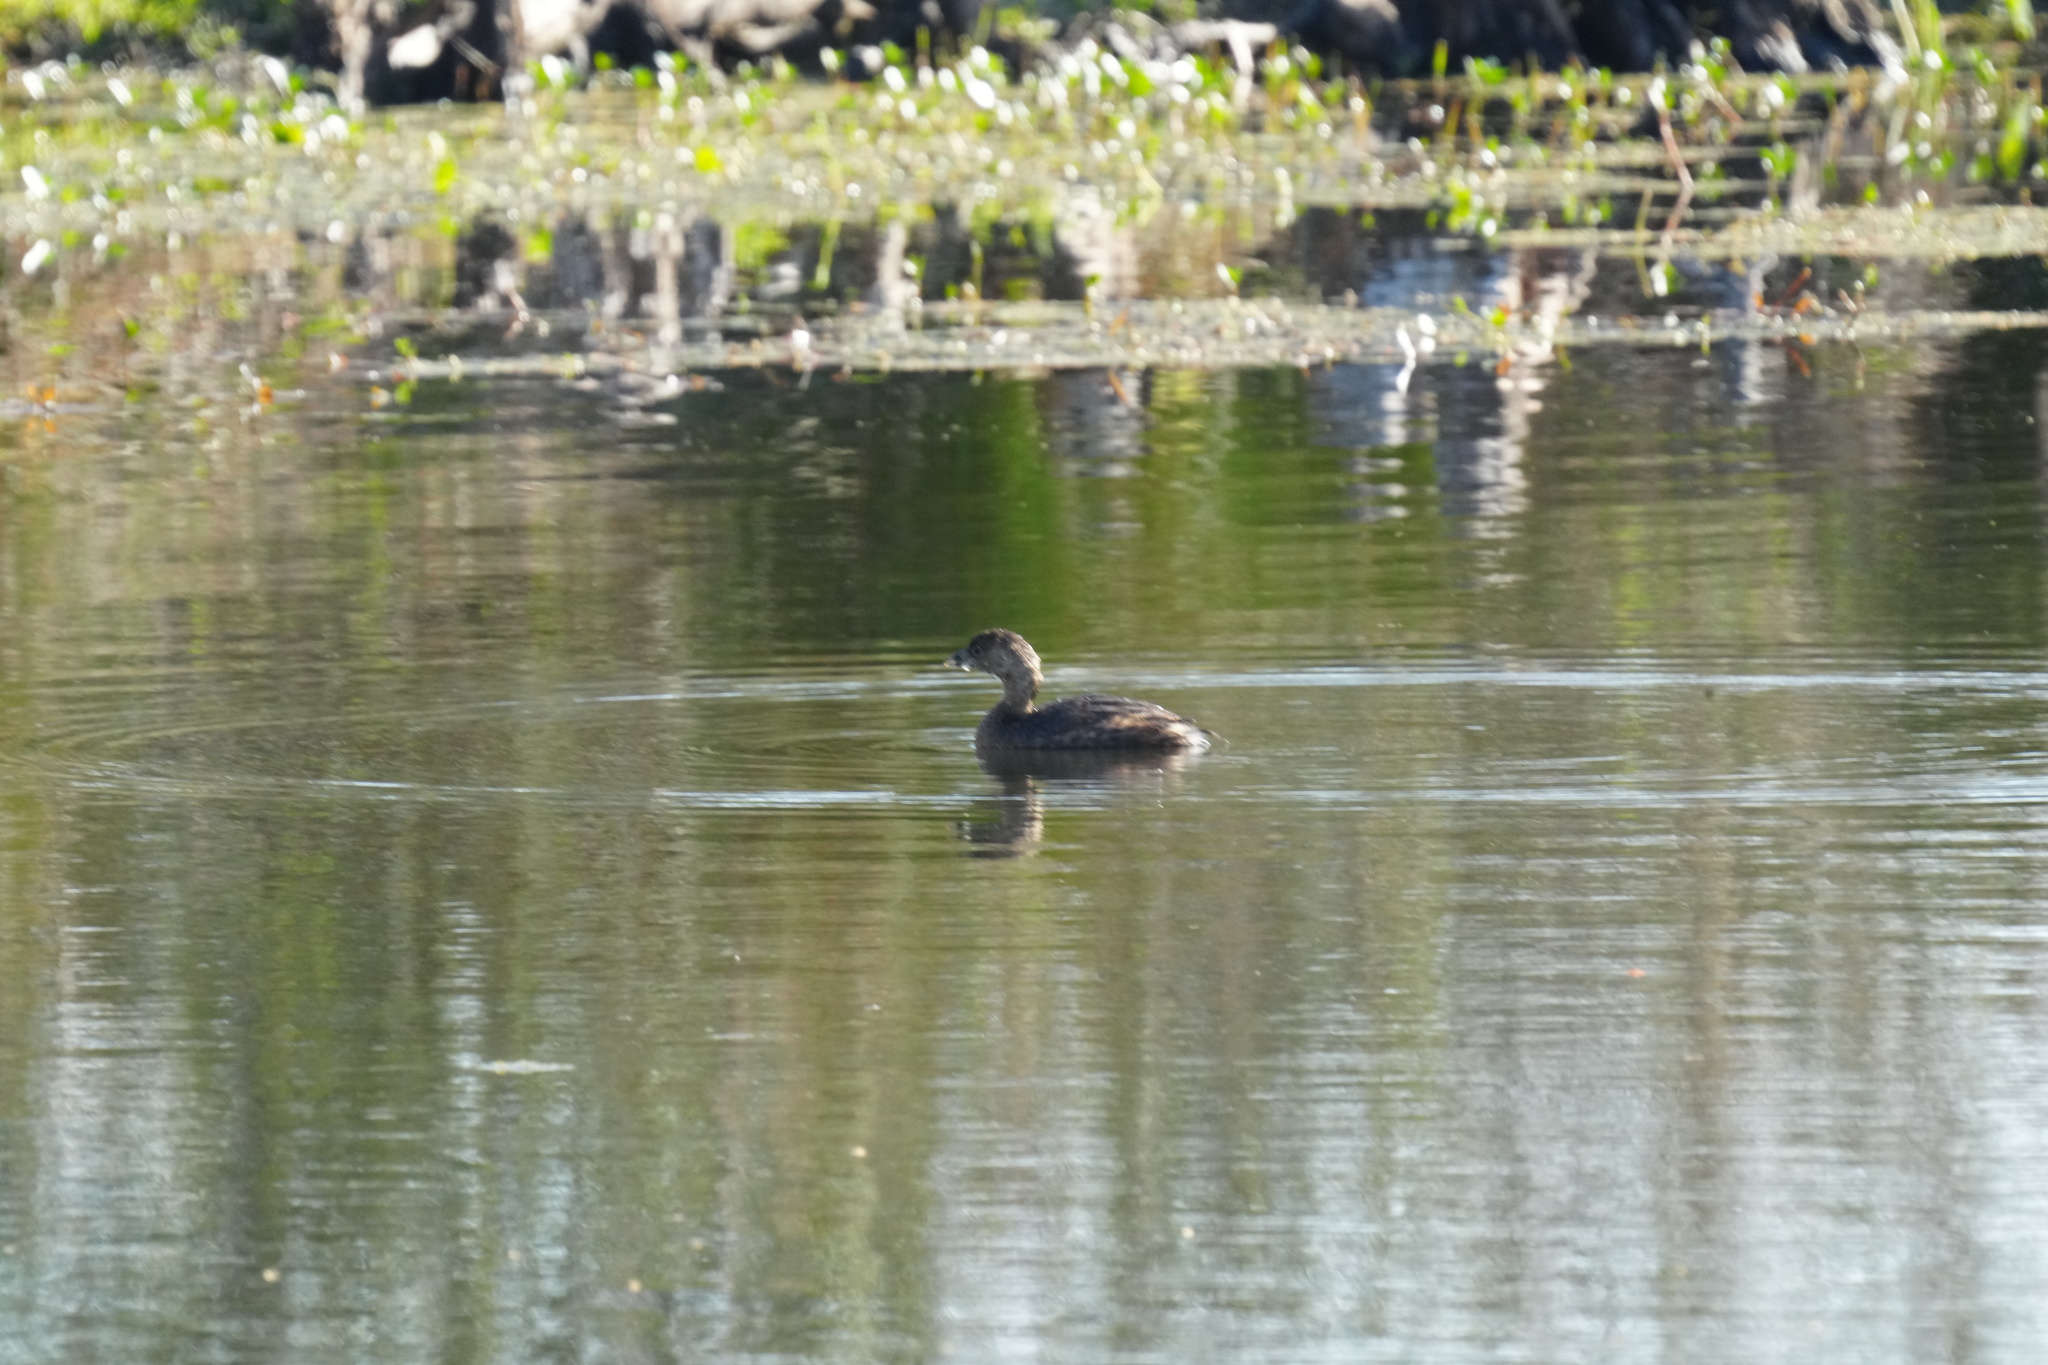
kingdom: Animalia
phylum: Chordata
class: Aves
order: Podicipediformes
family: Podicipedidae
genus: Podilymbus
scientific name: Podilymbus podiceps
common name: Pied-billed grebe
